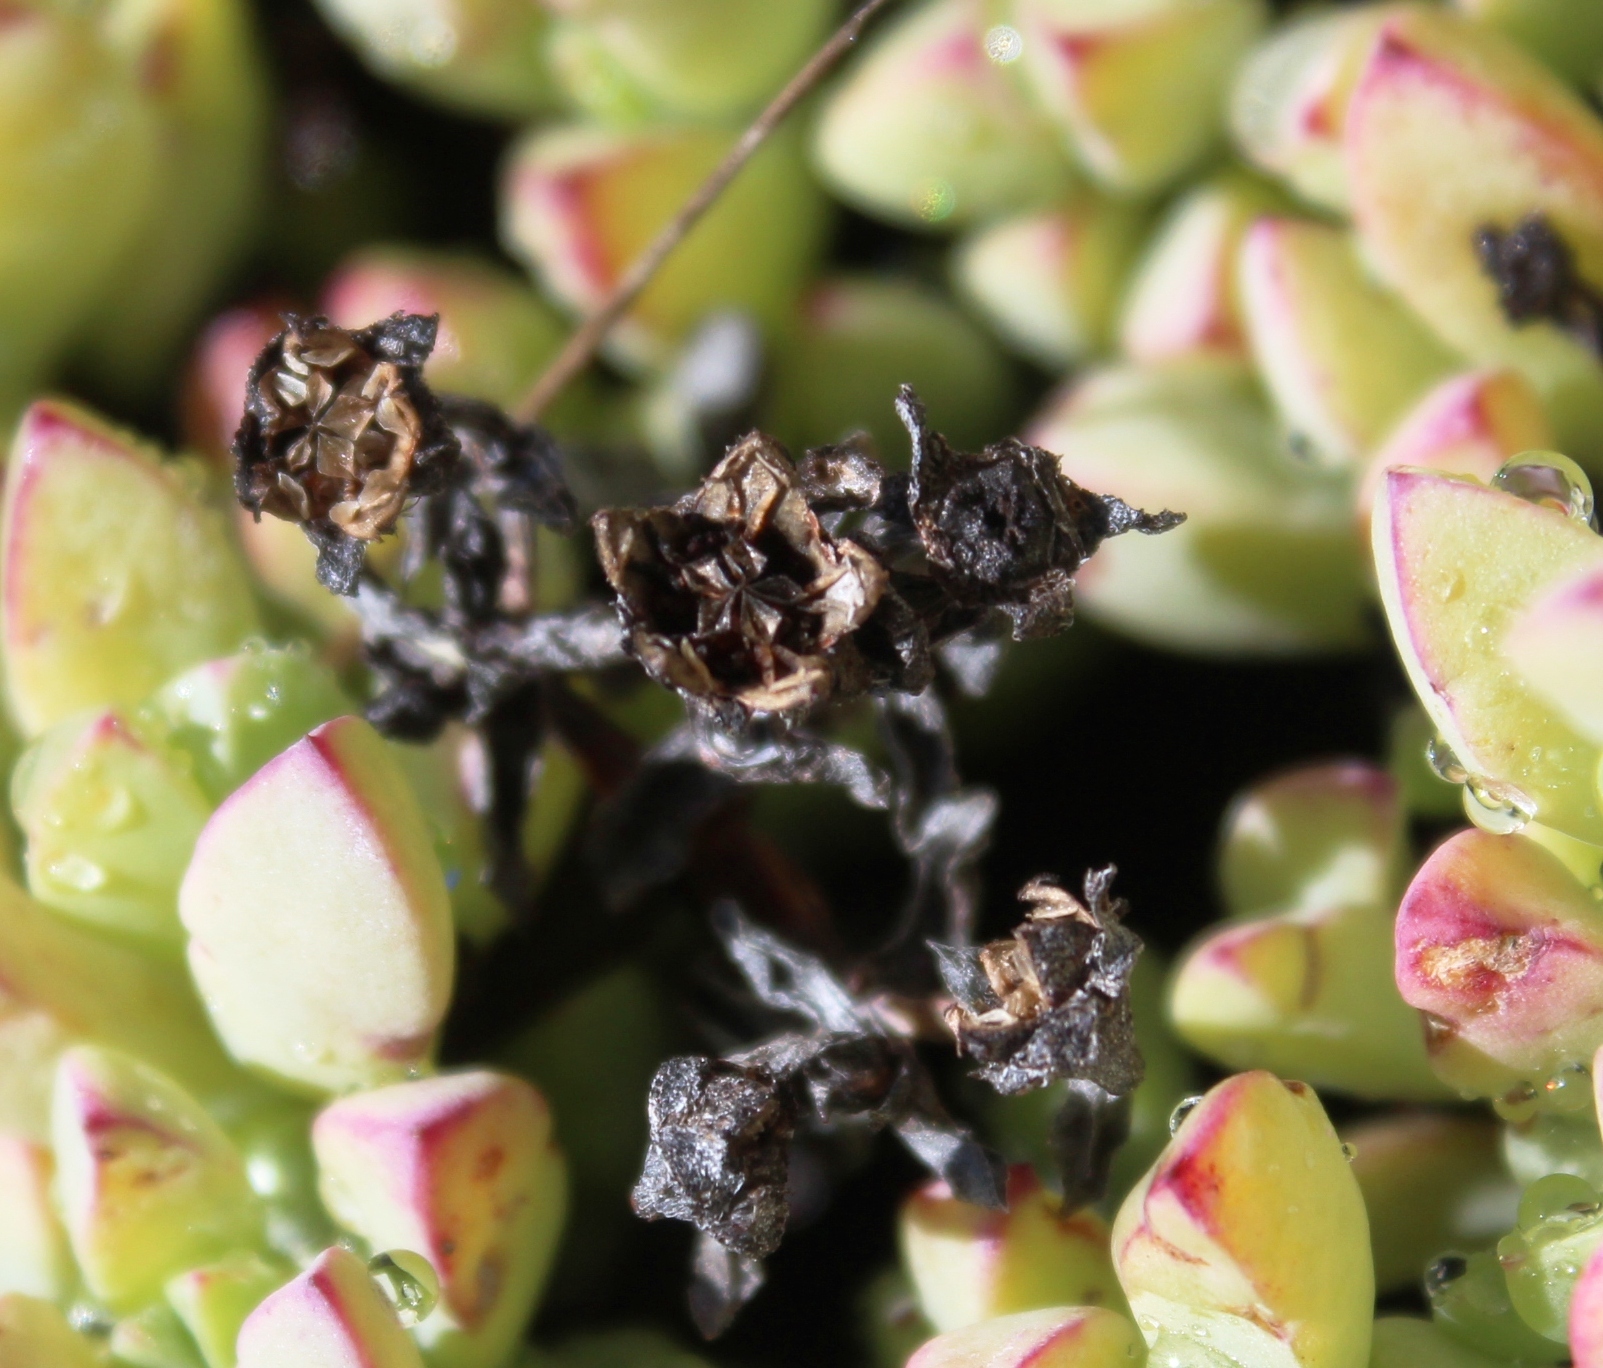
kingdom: Plantae
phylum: Tracheophyta
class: Magnoliopsida
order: Caryophyllales
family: Aizoaceae
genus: Oscularia
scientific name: Oscularia caulescens
